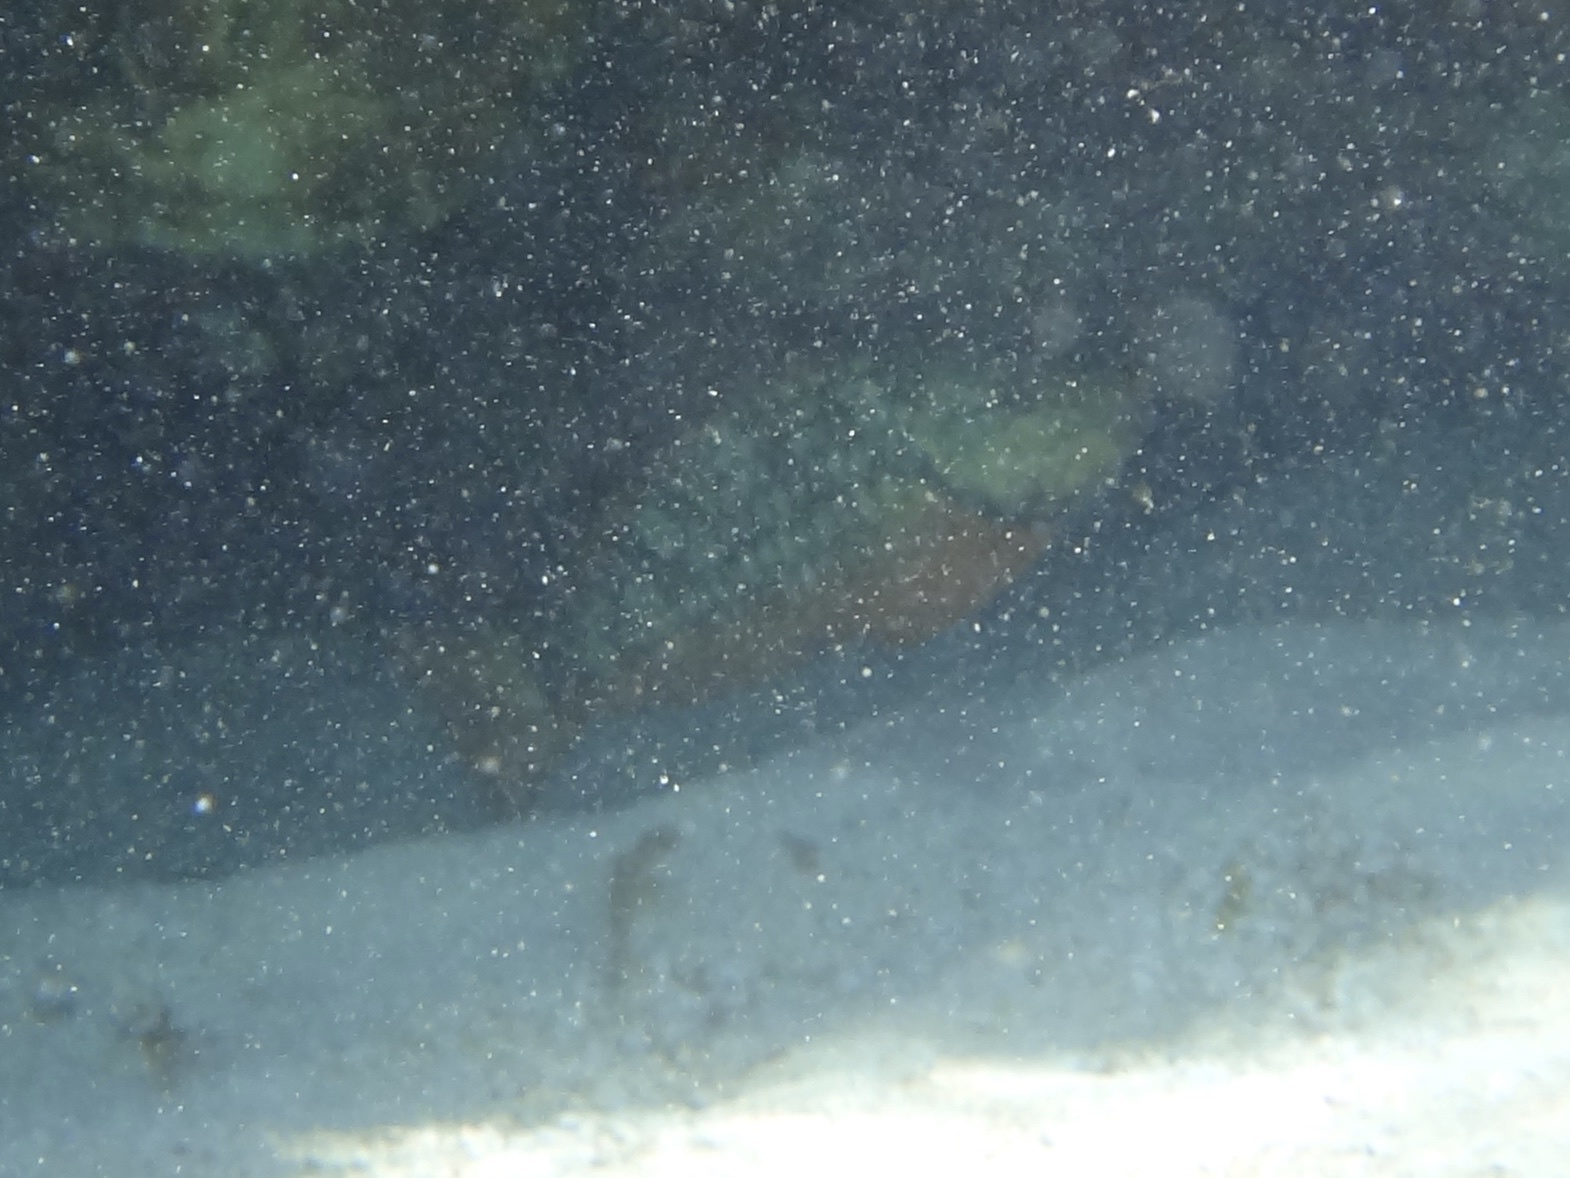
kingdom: Animalia
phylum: Chordata
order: Perciformes
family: Scaridae
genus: Sparisoma
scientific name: Sparisoma viride
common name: Stoplight parrotfish
